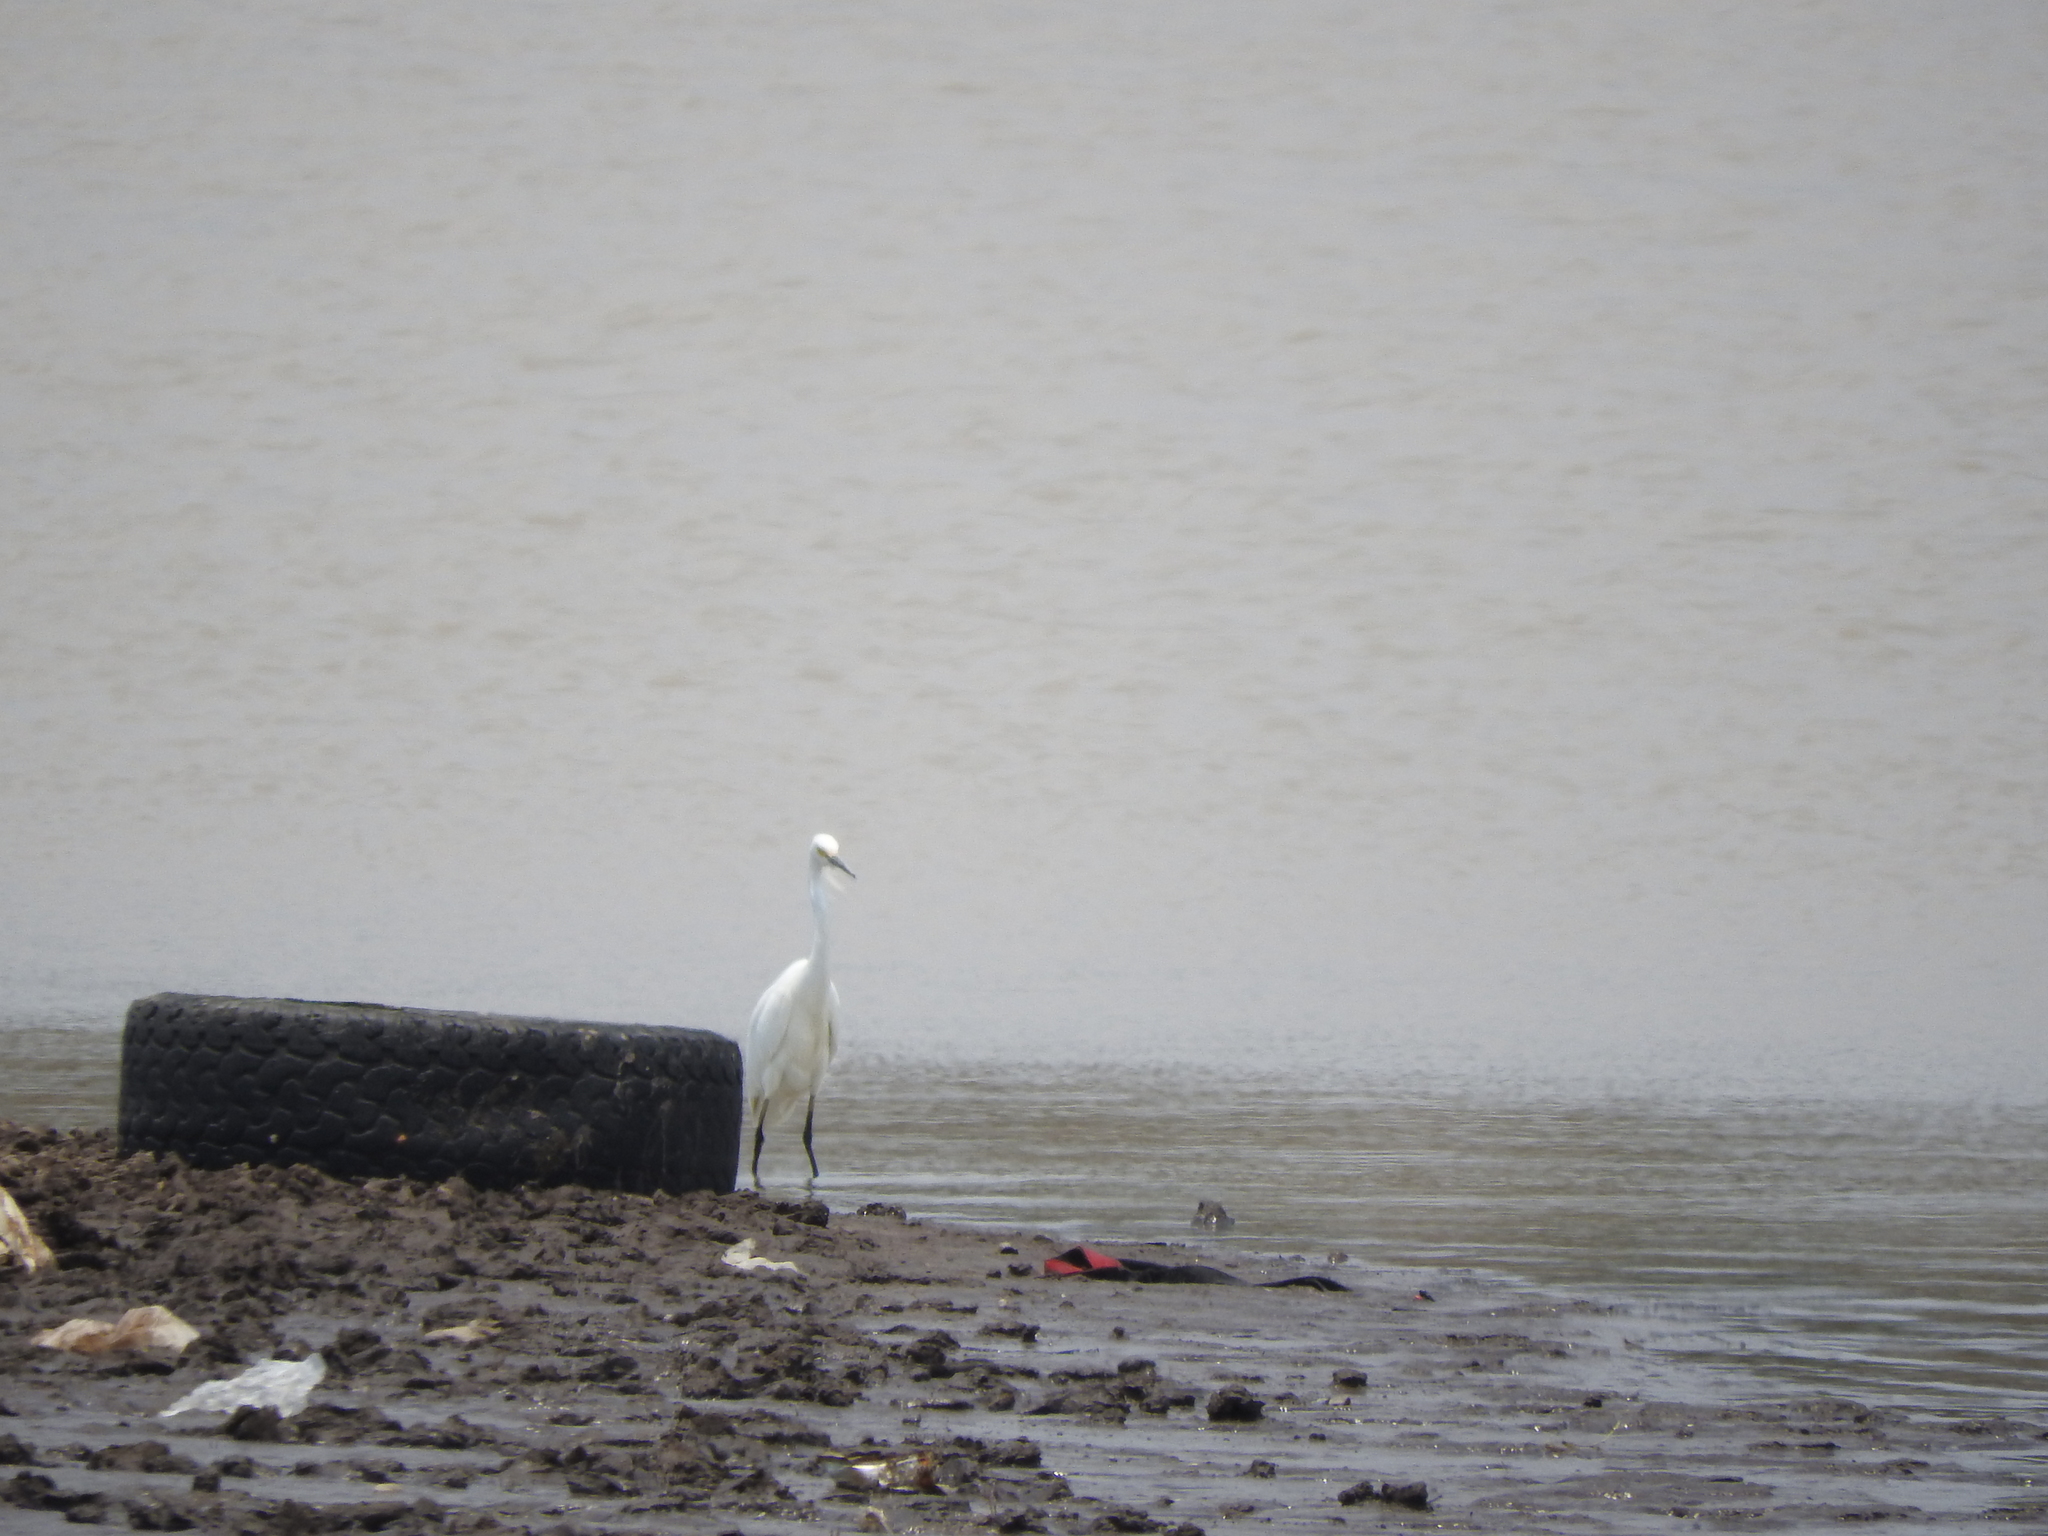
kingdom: Animalia
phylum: Chordata
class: Aves
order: Pelecaniformes
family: Ardeidae
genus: Egretta
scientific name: Egretta thula
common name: Snowy egret
